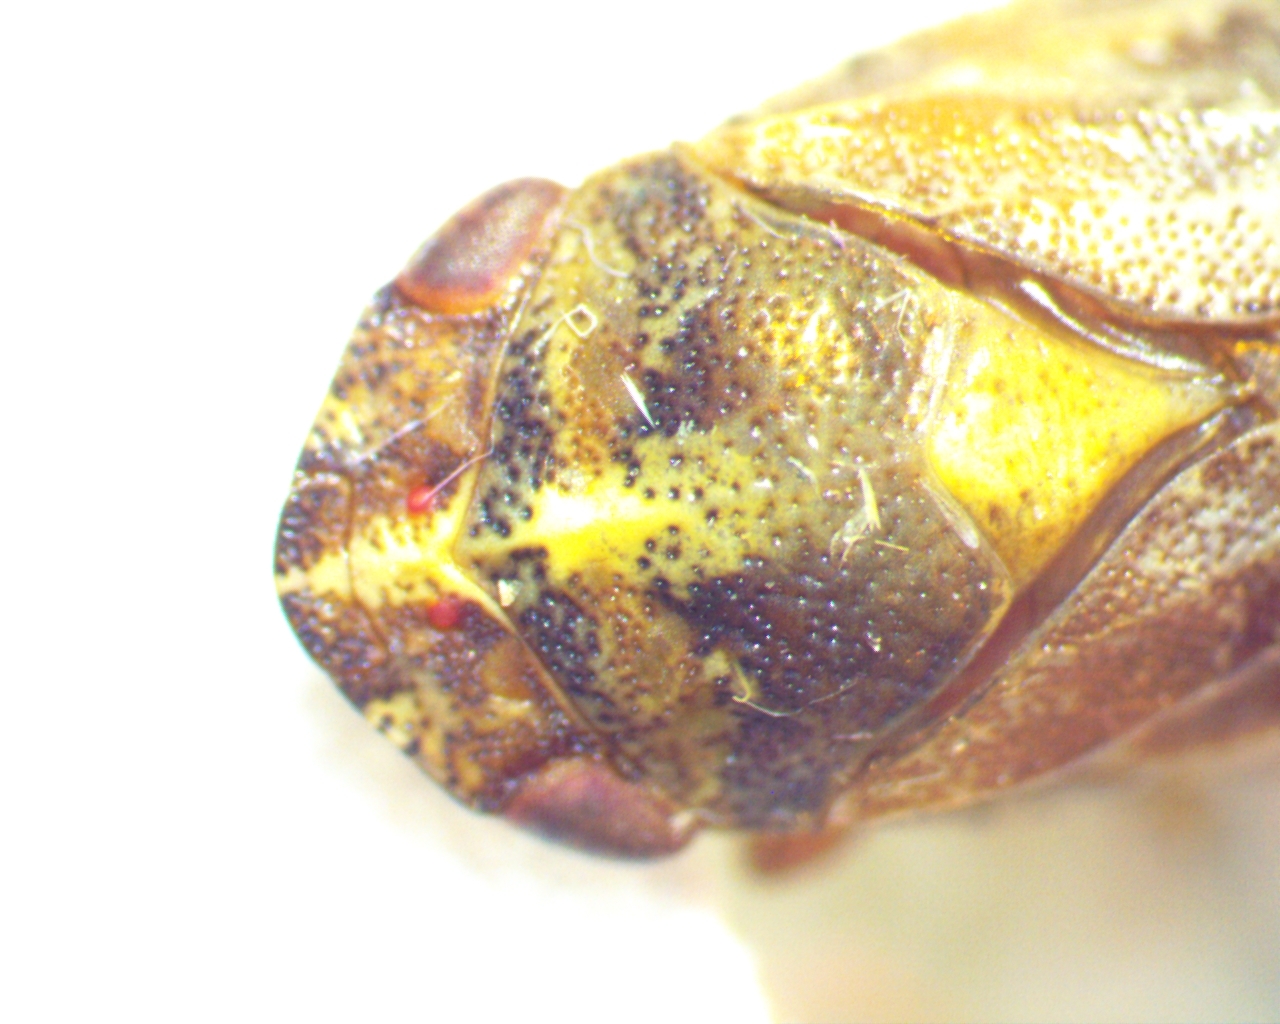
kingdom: Animalia
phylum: Arthropoda
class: Insecta
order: Hemiptera
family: Aphrophoridae
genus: Aphrophora
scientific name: Aphrophora saratogensis
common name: Saratoga spittlebug
